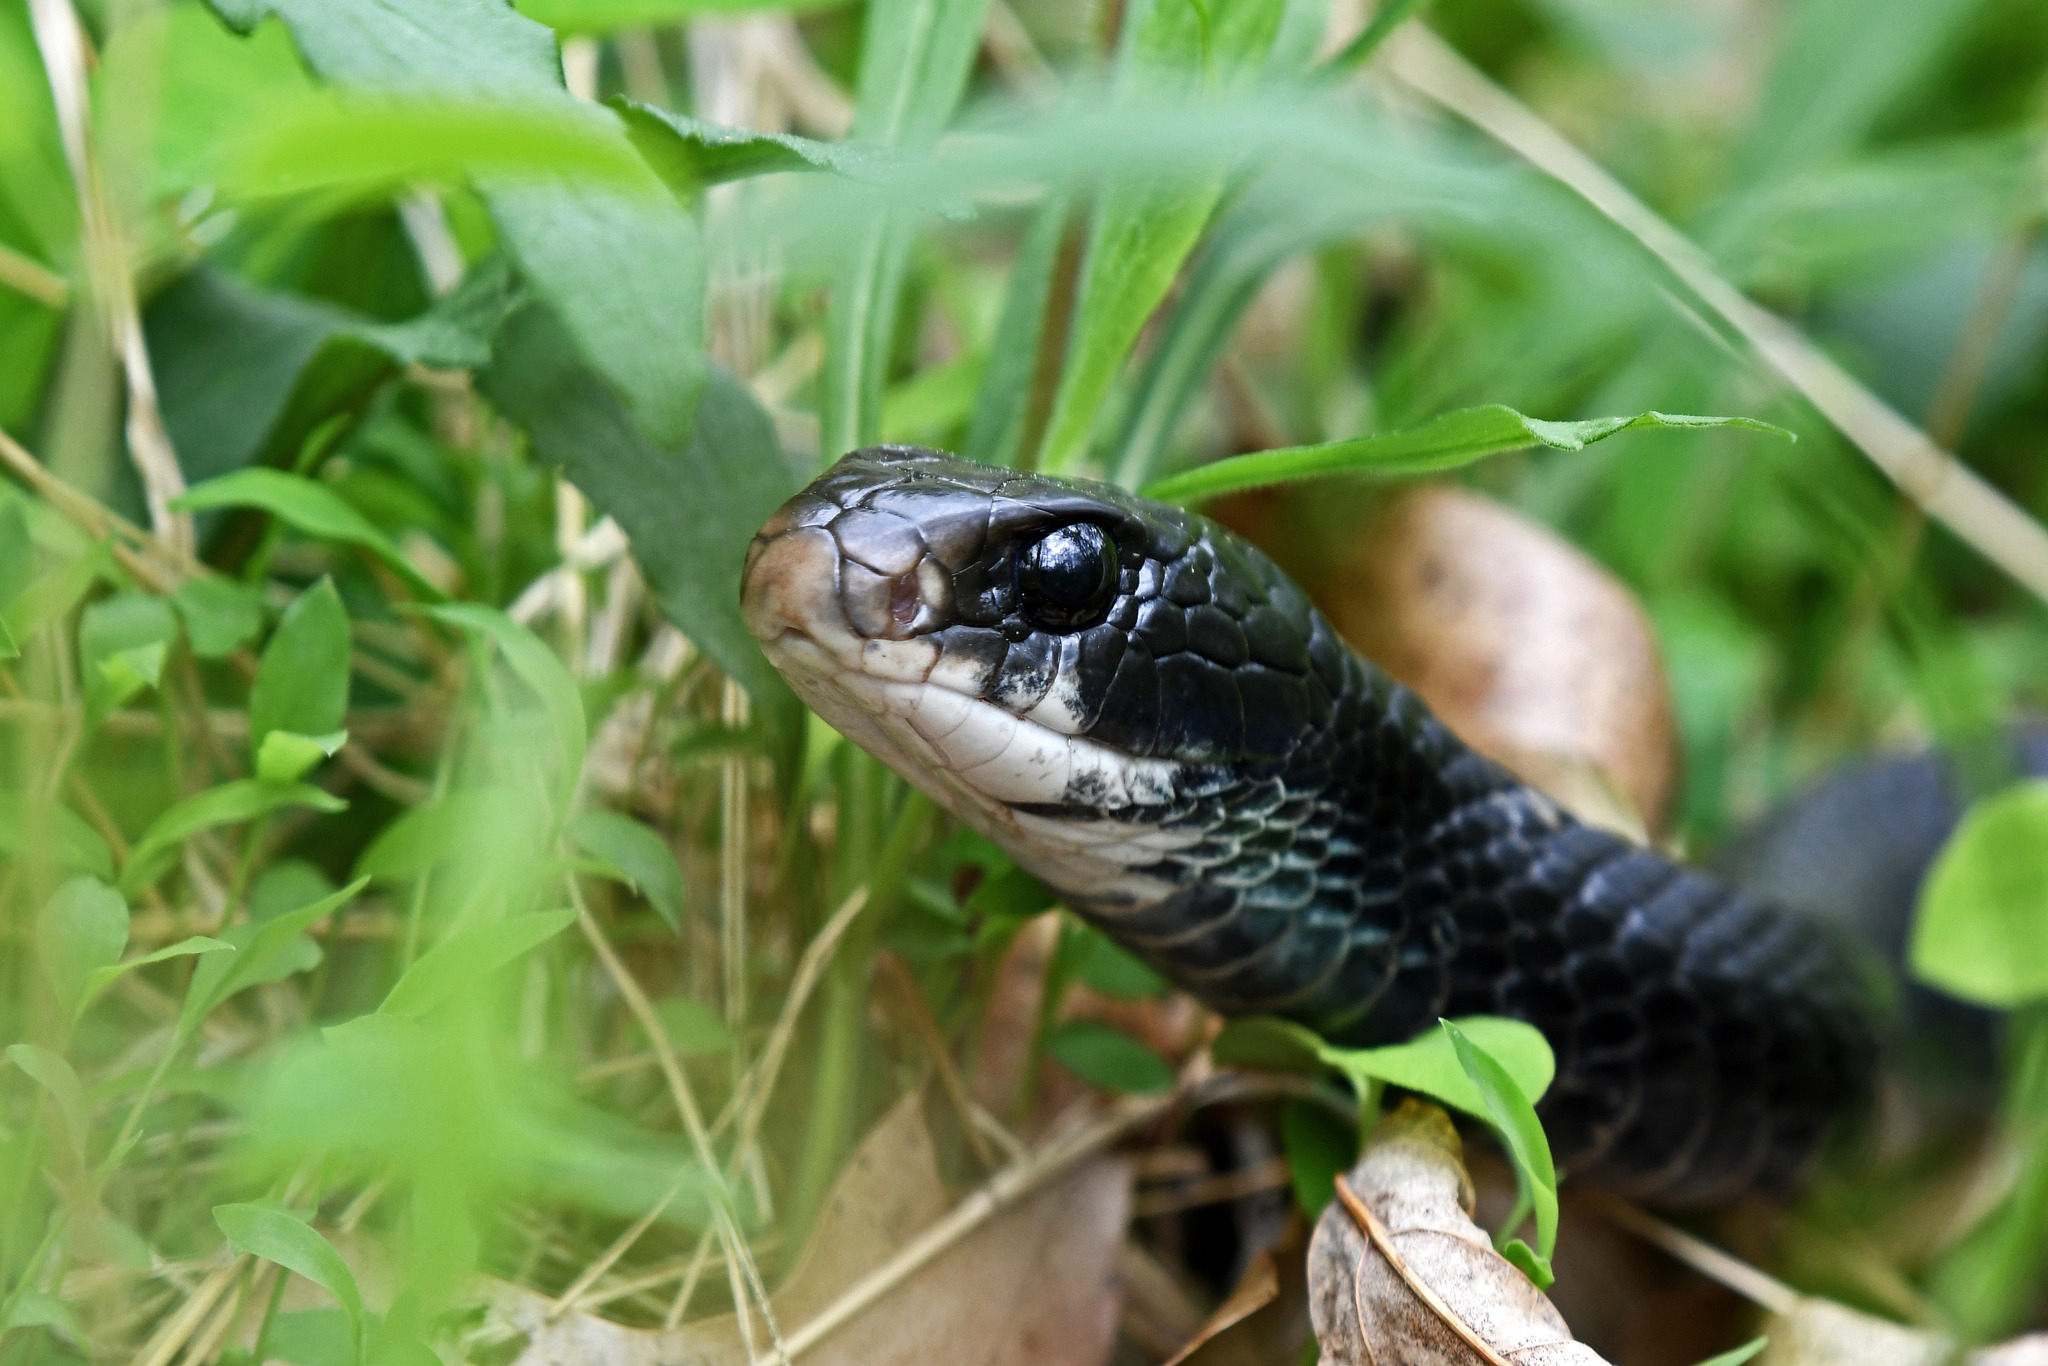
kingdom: Animalia
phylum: Chordata
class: Squamata
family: Colubridae
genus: Coluber
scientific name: Coluber constrictor
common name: Eastern racer
